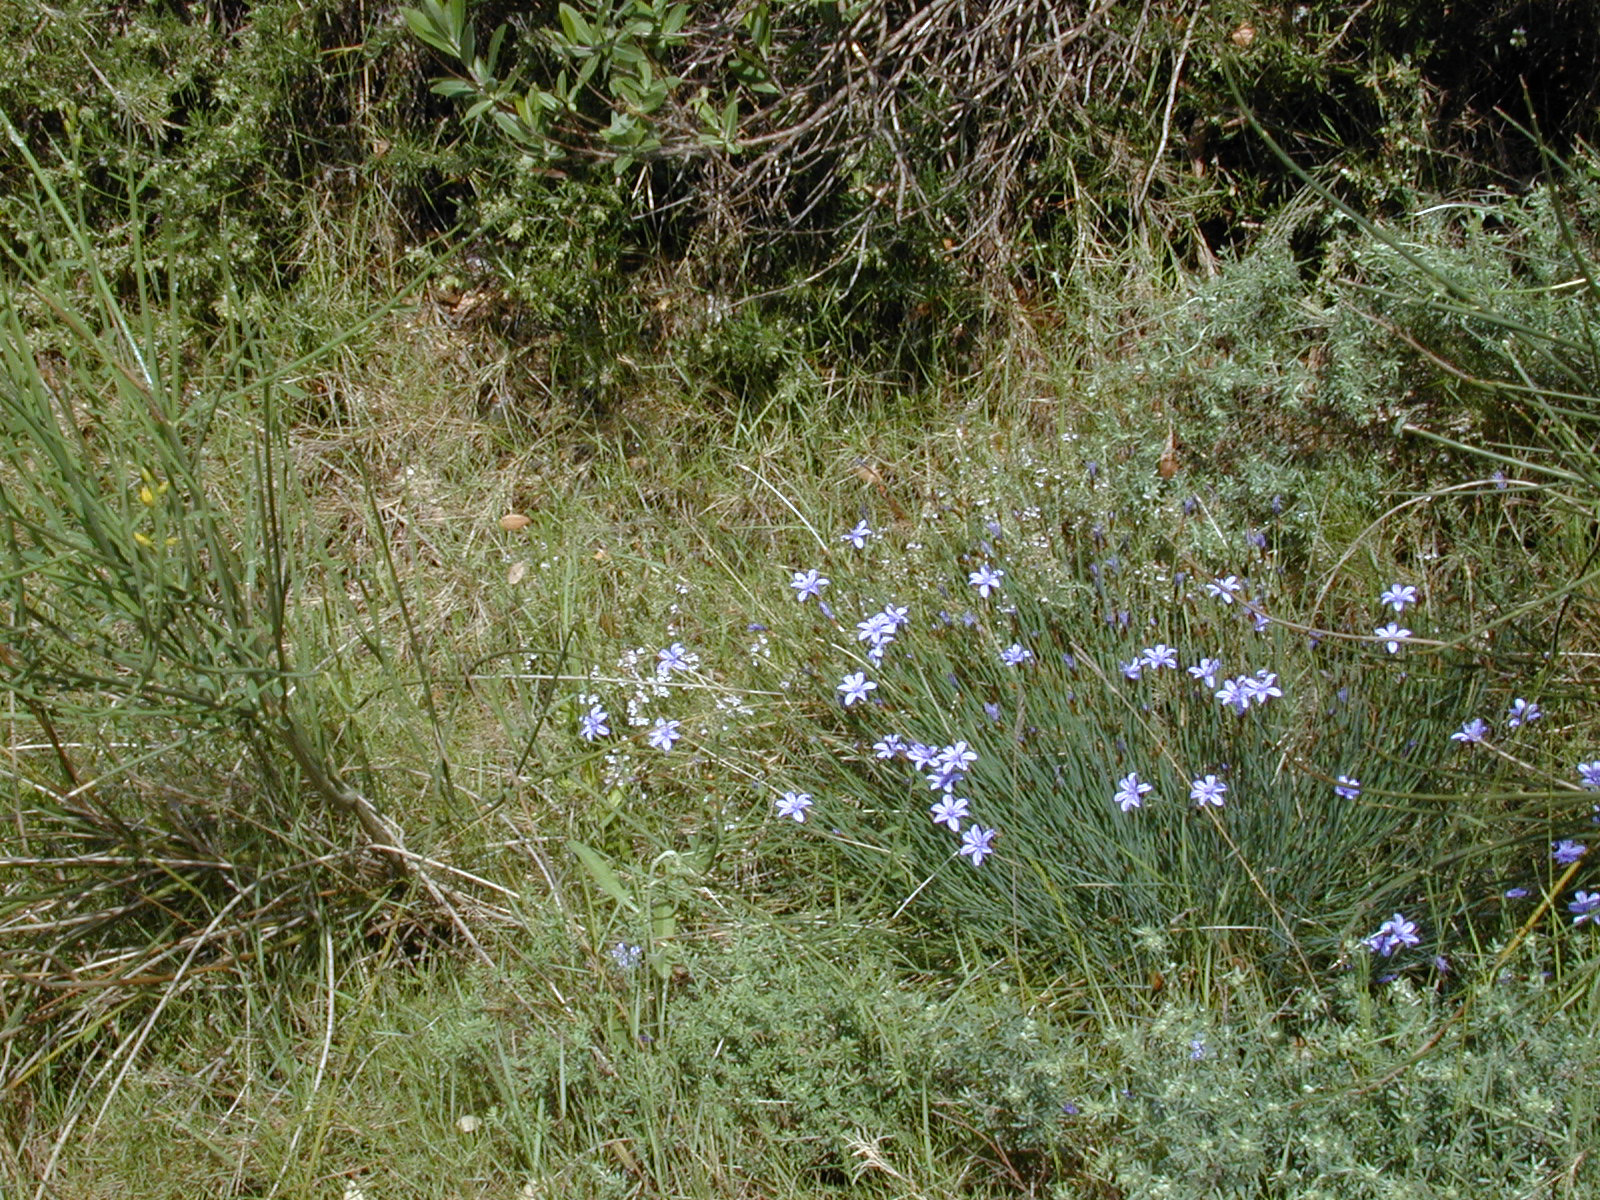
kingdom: Plantae
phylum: Tracheophyta
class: Liliopsida
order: Asparagales
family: Asparagaceae
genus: Aphyllanthes
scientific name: Aphyllanthes monspeliensis
